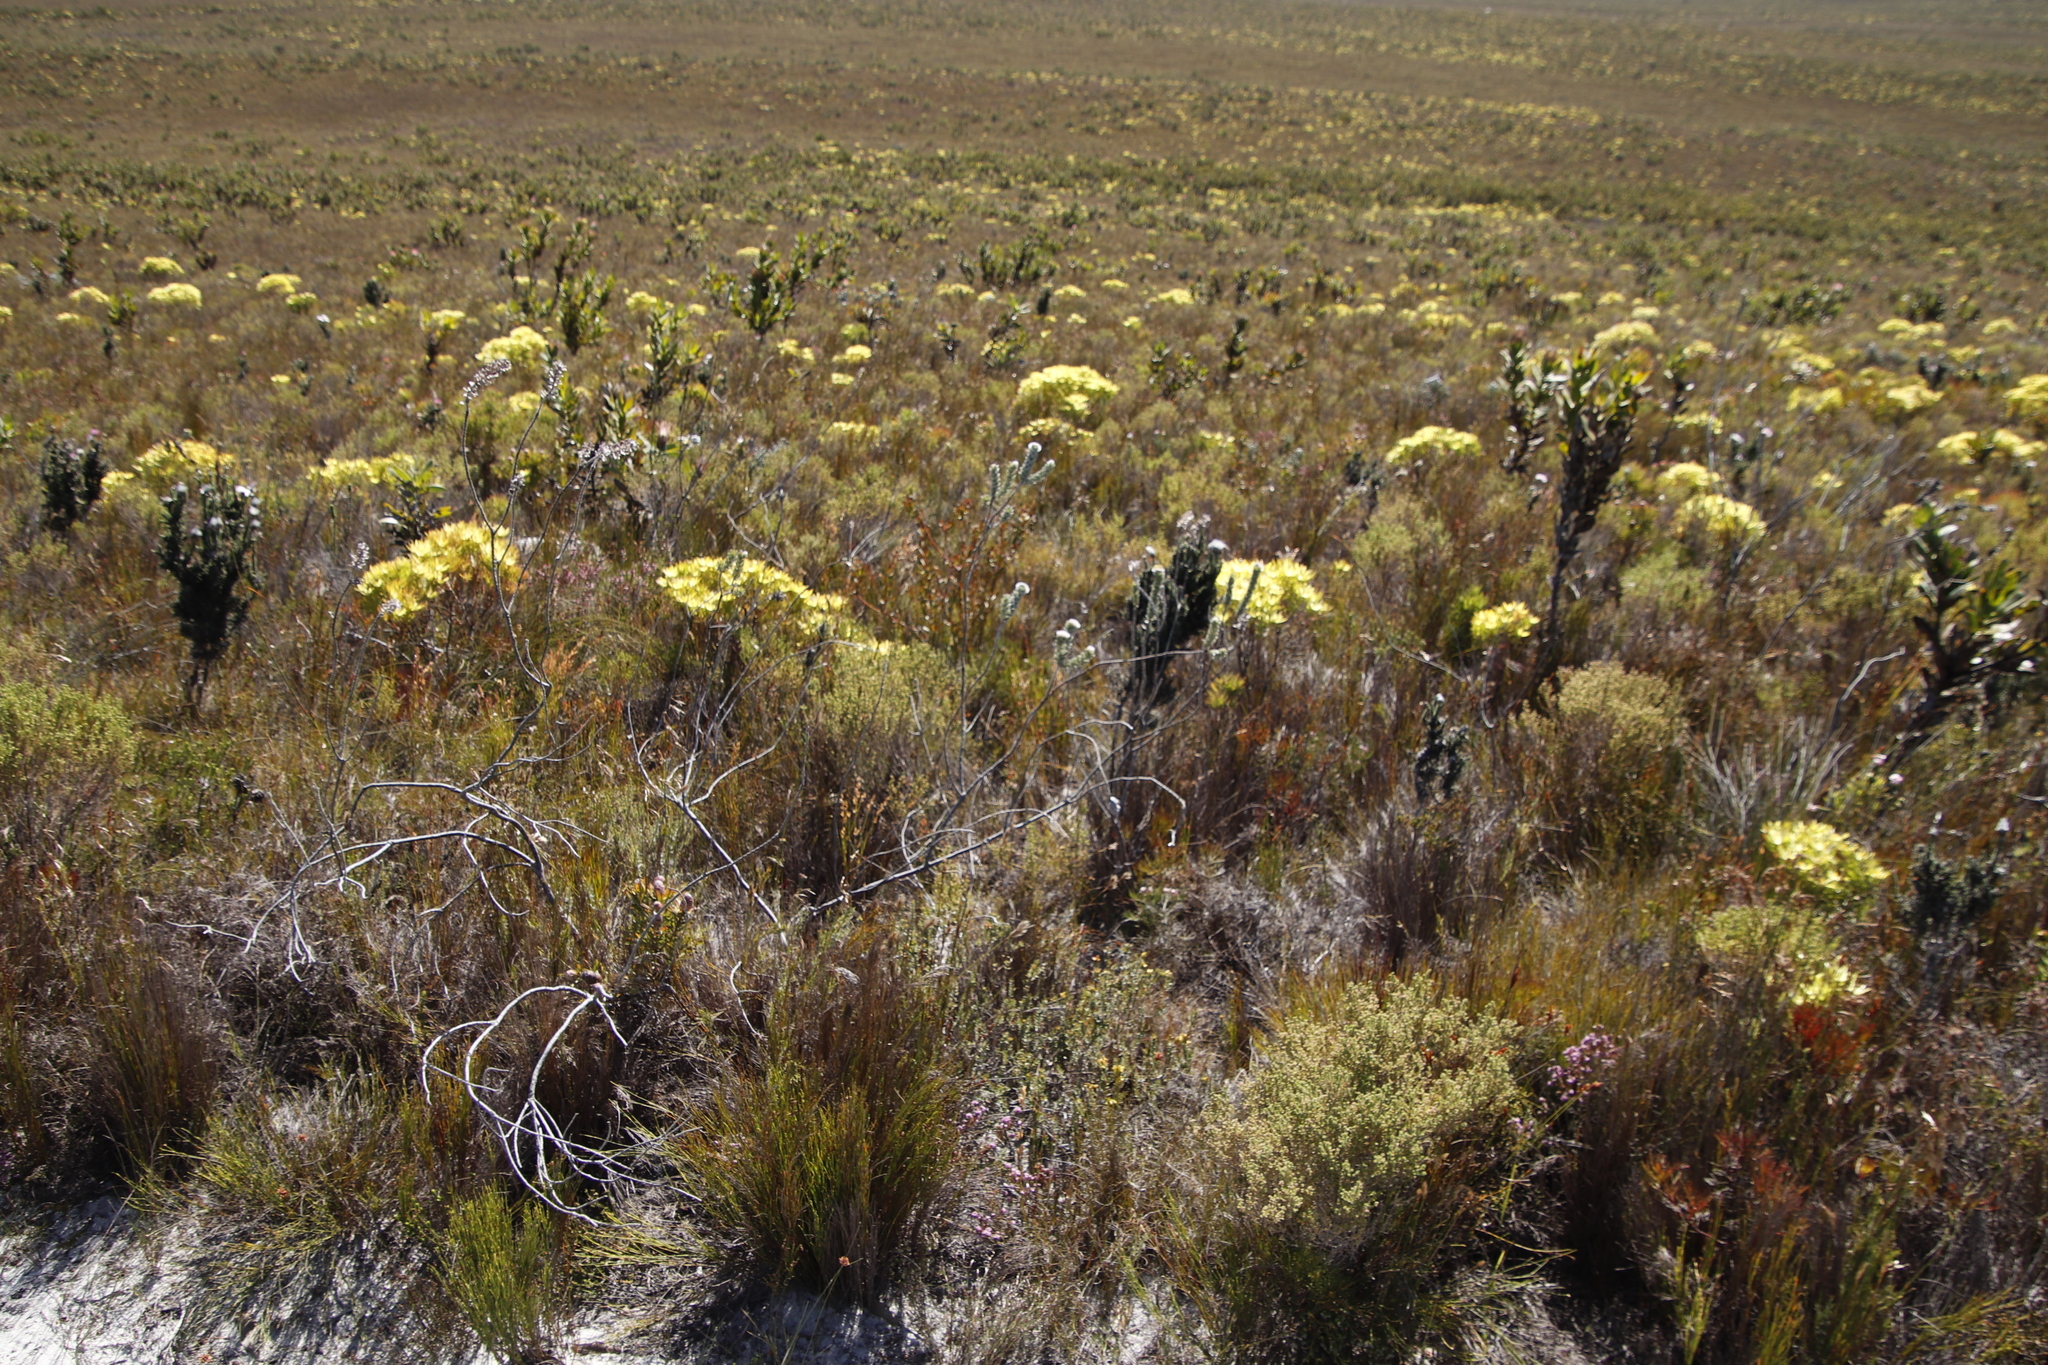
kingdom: Plantae
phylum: Tracheophyta
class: Magnoliopsida
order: Proteales
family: Proteaceae
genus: Leucospermum
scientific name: Leucospermum truncatulum
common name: Oval-leaf pincushion
